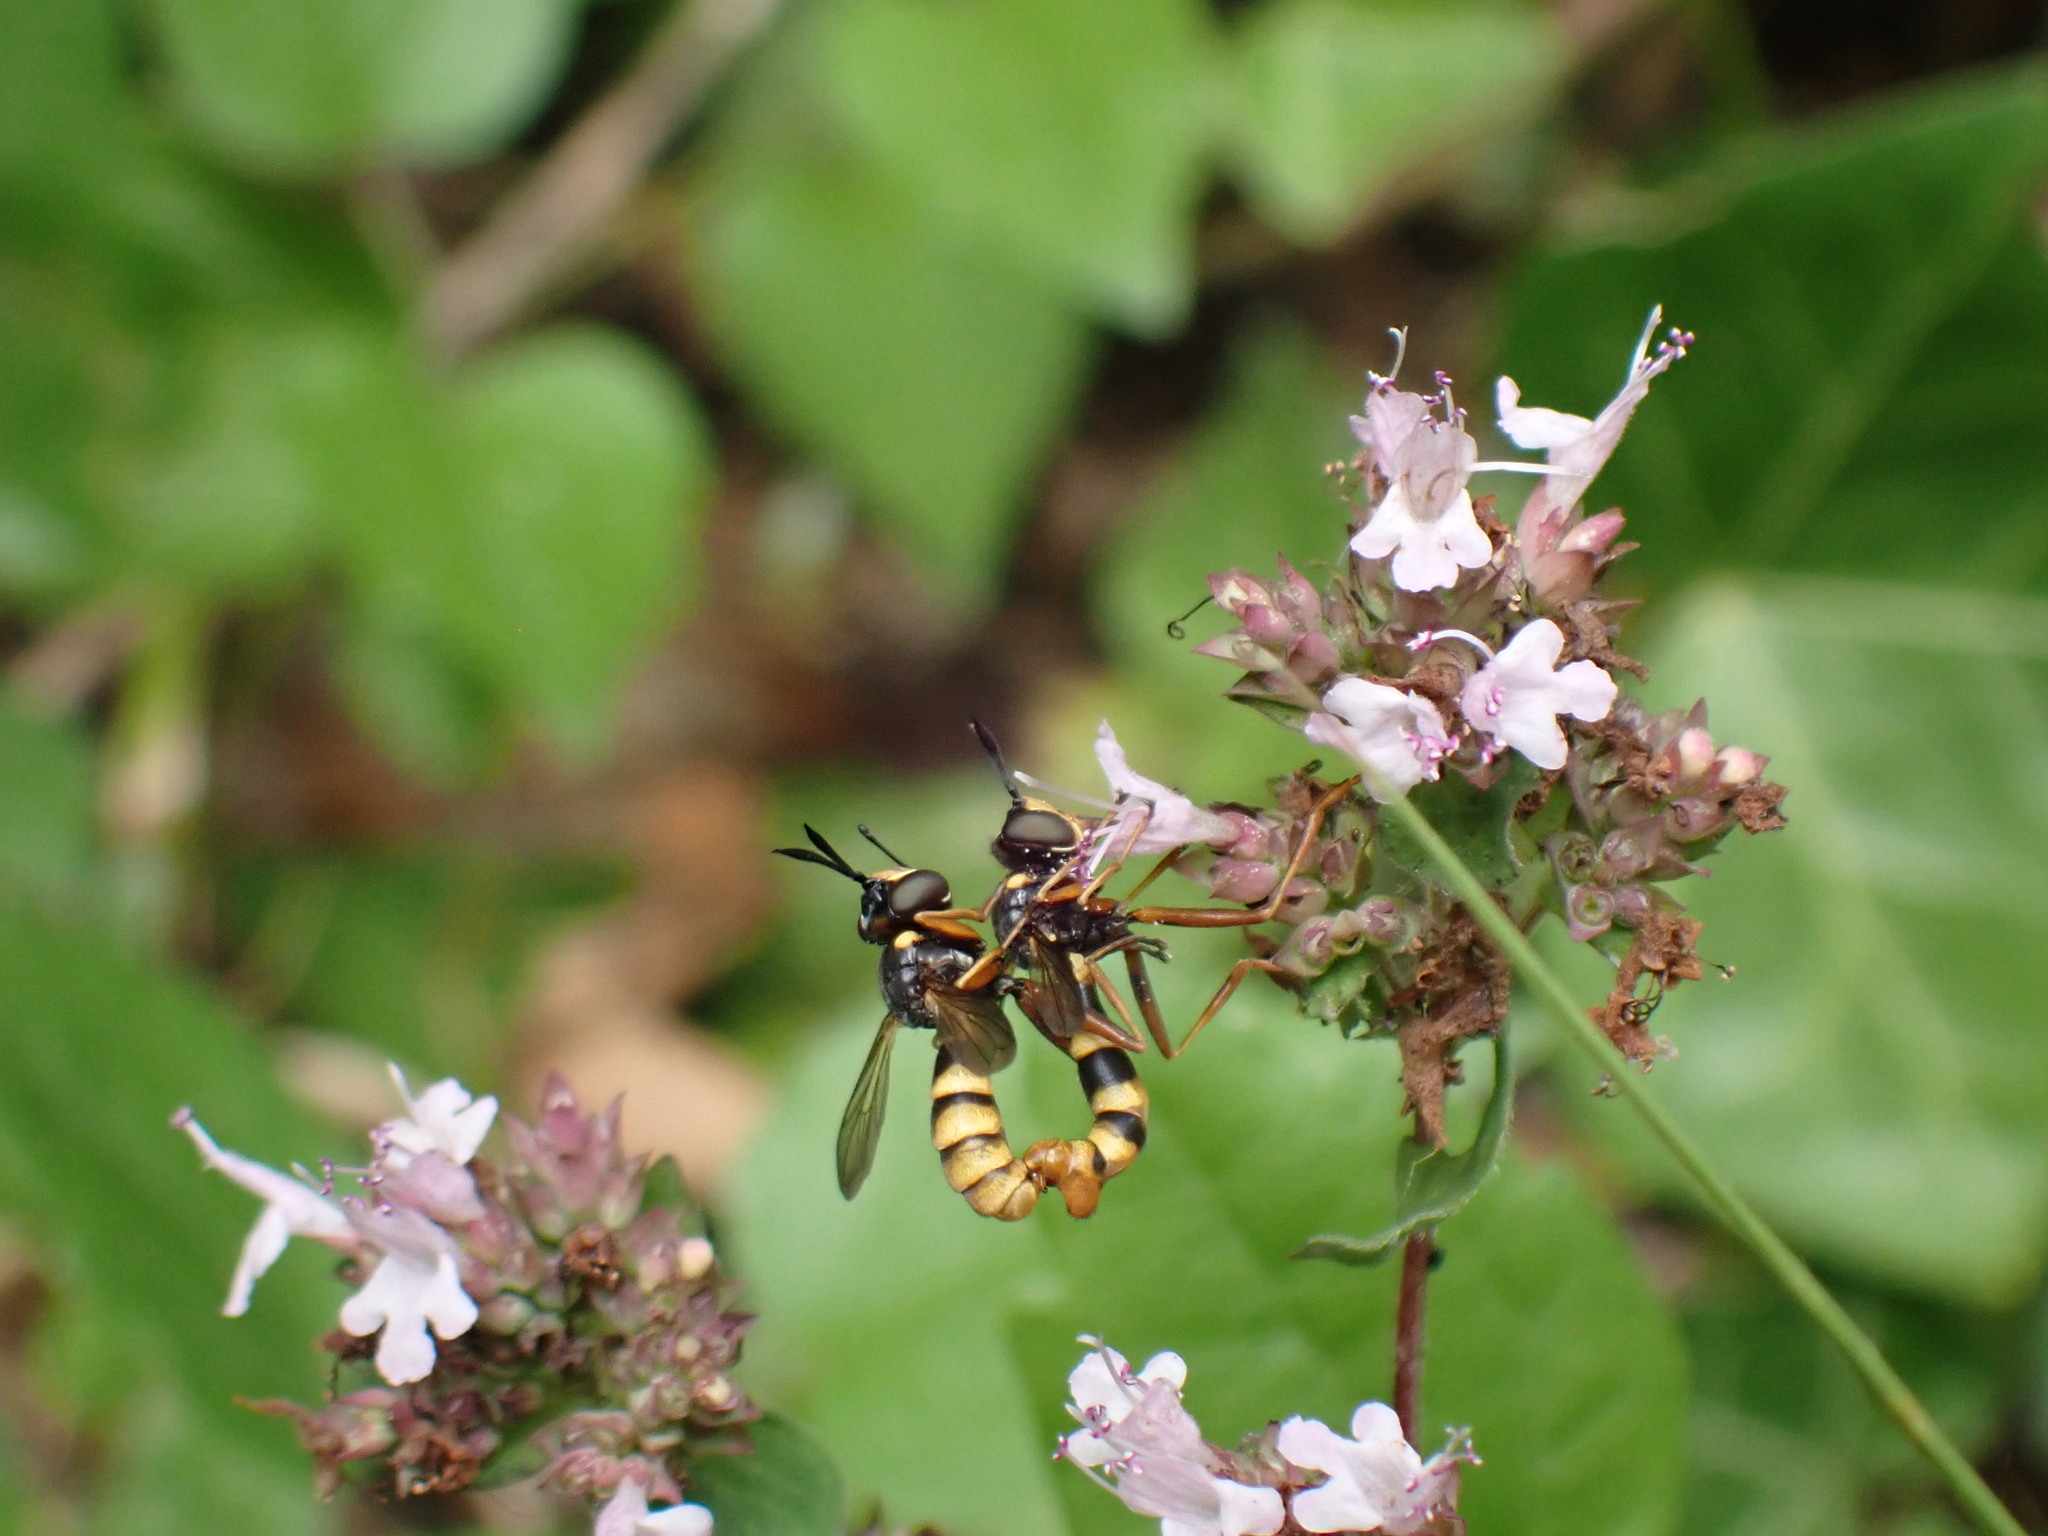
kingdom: Animalia
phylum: Arthropoda
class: Insecta
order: Diptera
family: Conopidae
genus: Conops
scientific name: Conops quadrifasciatus
